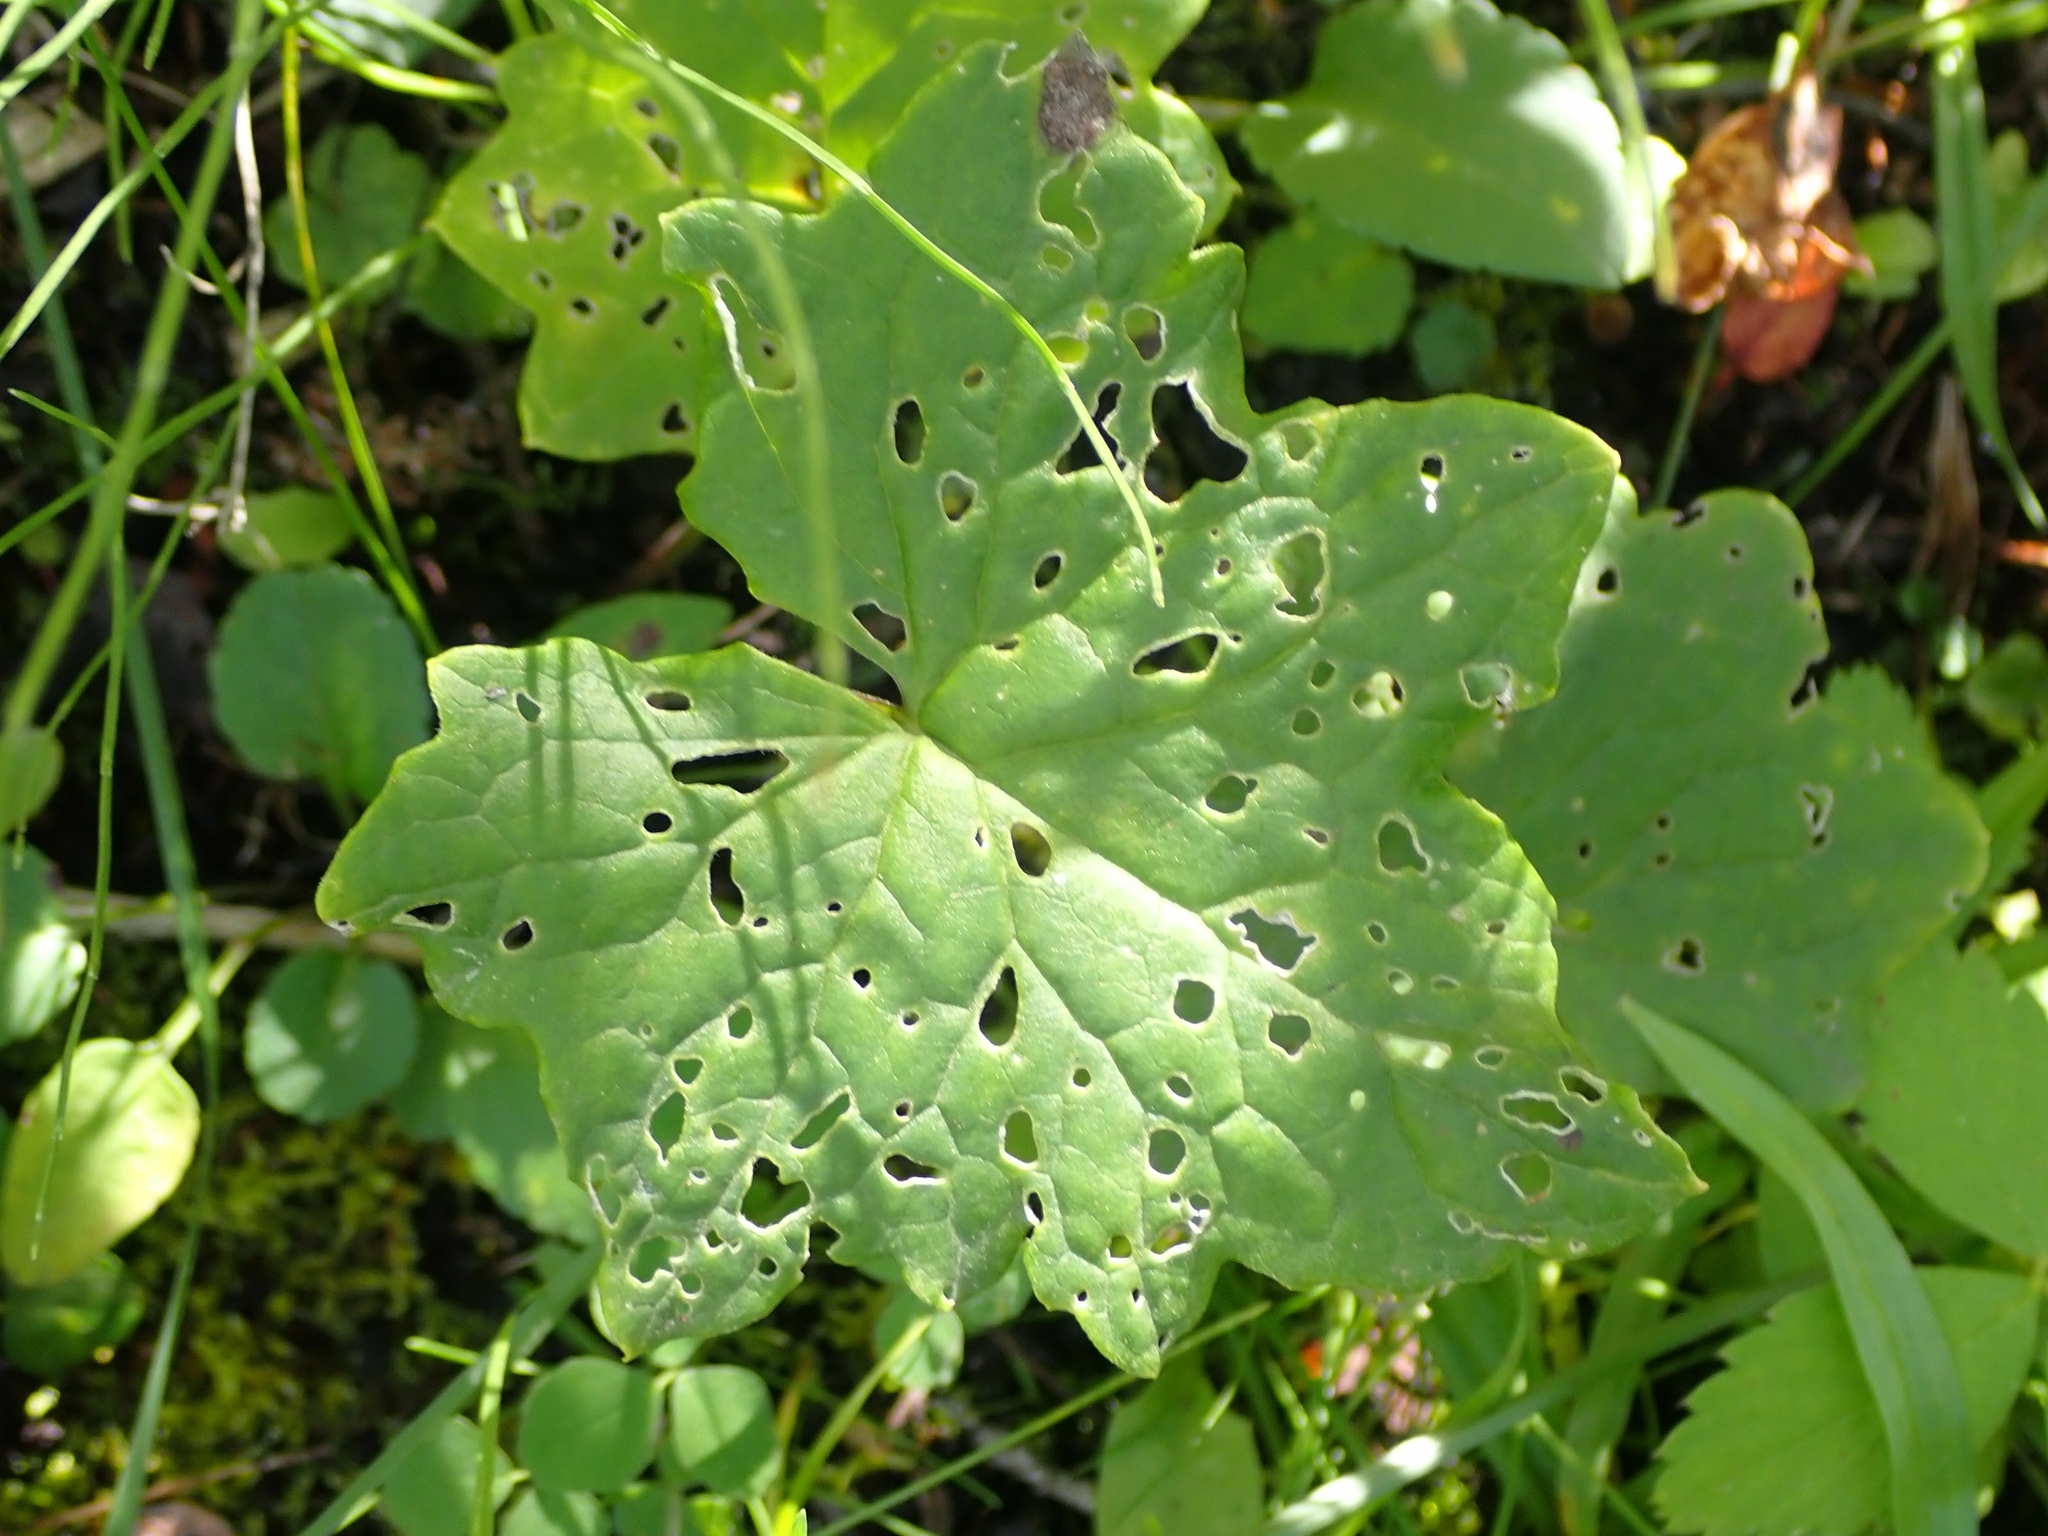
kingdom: Plantae
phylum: Tracheophyta
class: Magnoliopsida
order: Asterales
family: Asteraceae
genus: Petasites
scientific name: Petasites frigidus
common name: Arctic butterbur
